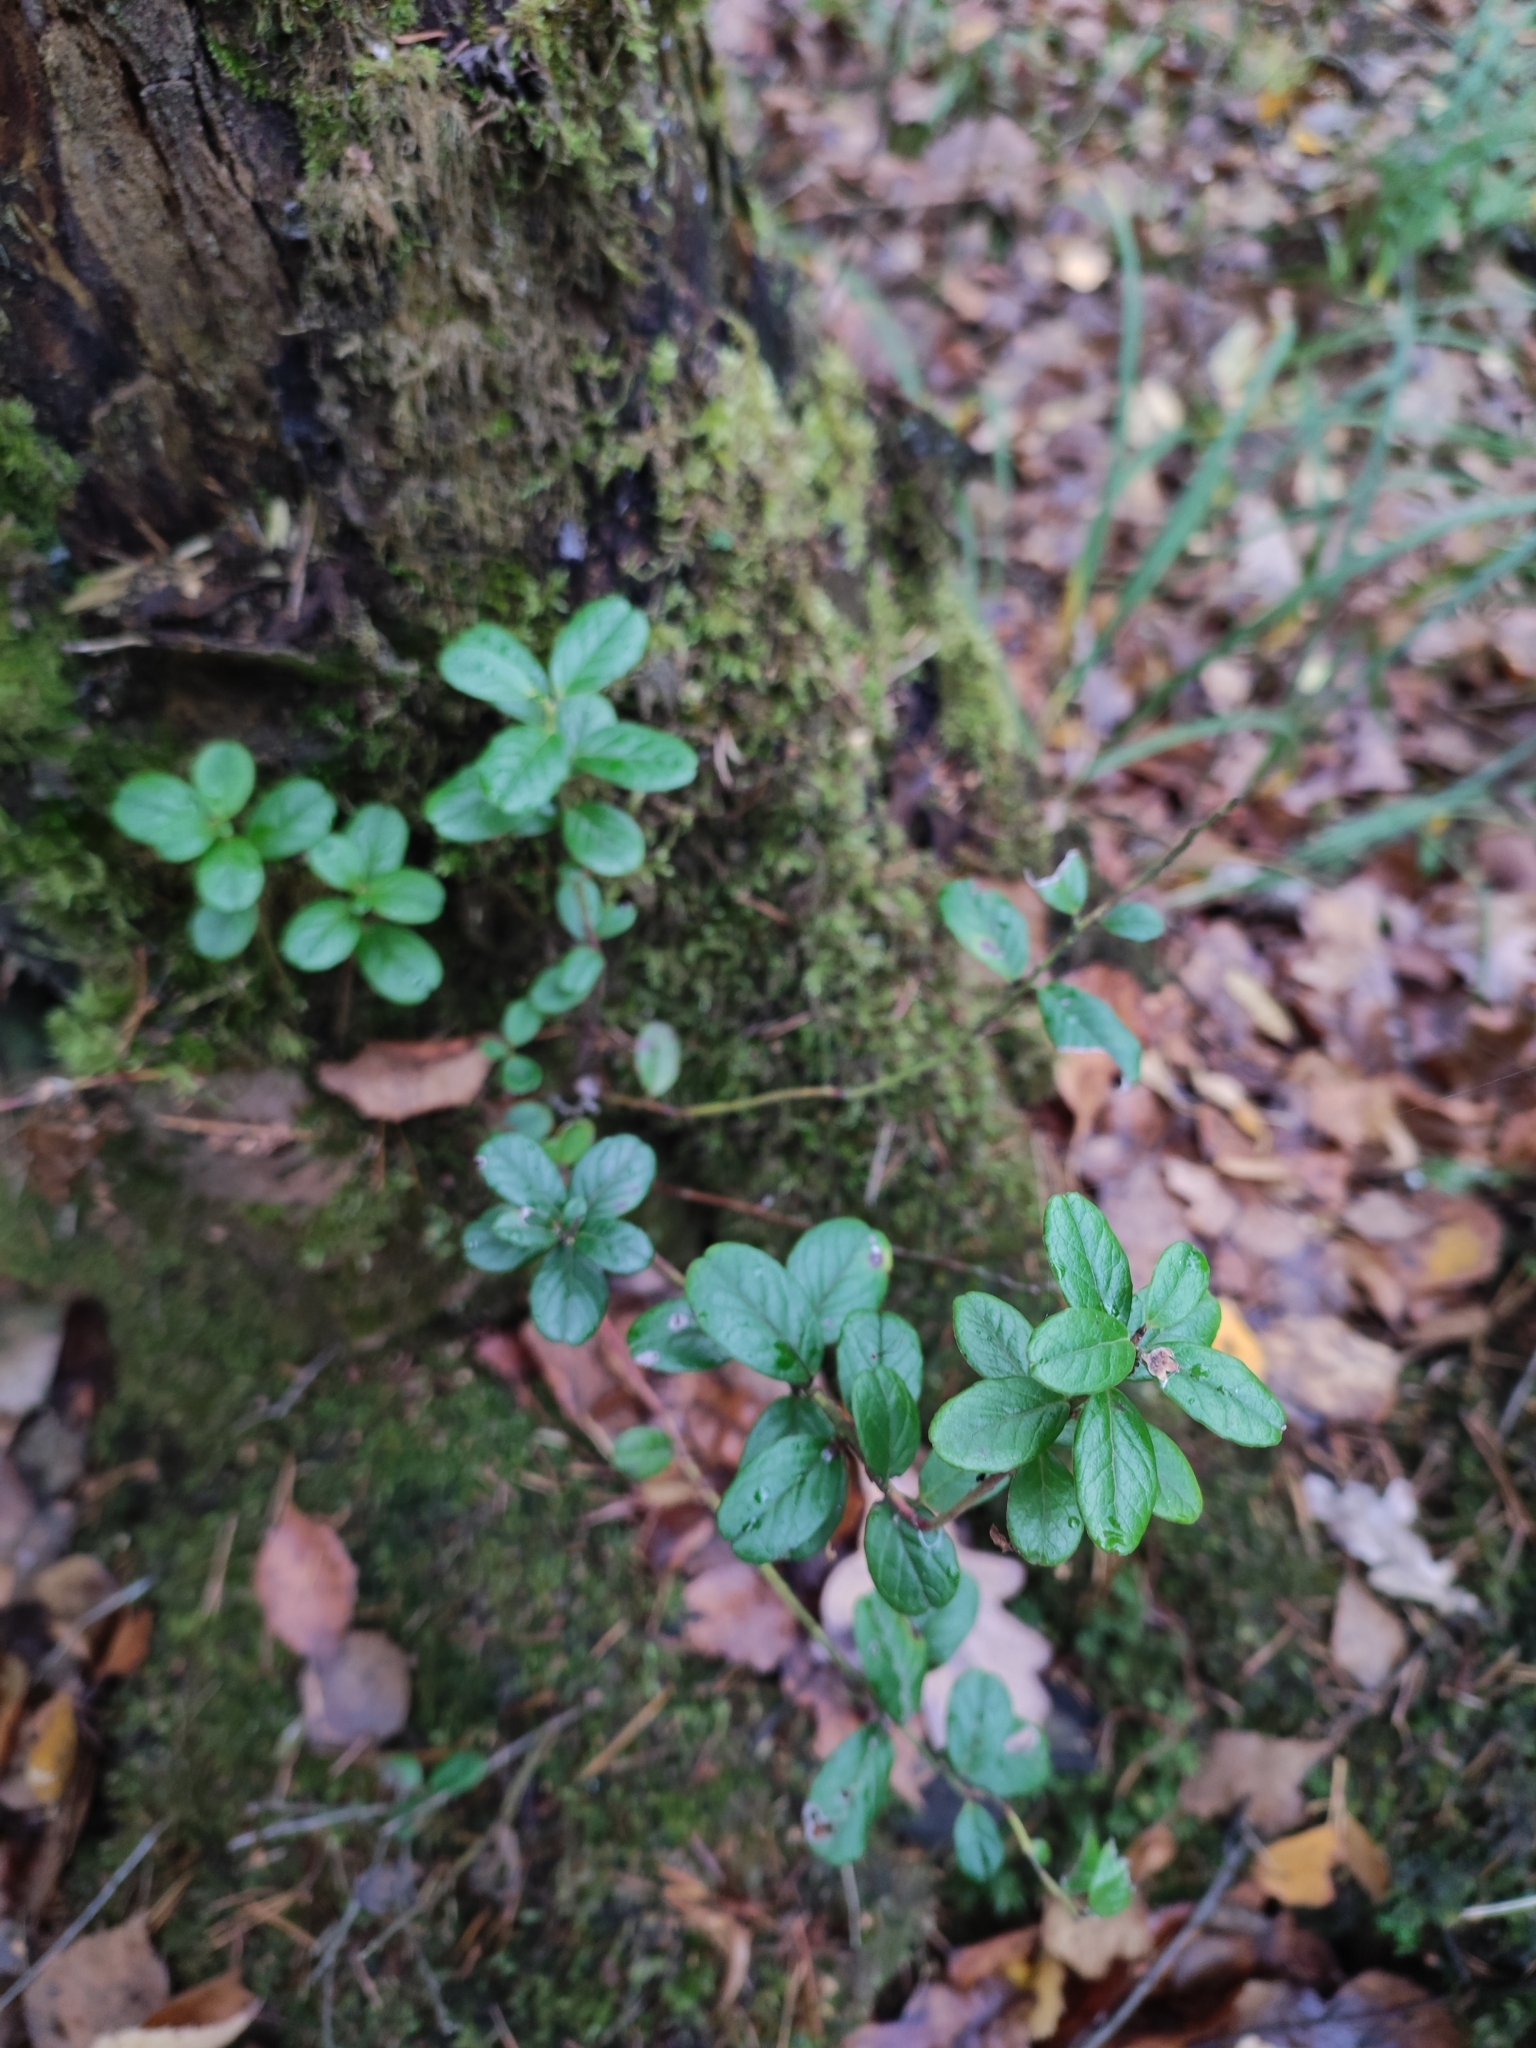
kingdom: Plantae
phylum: Tracheophyta
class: Magnoliopsida
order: Ericales
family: Ericaceae
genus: Vaccinium
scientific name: Vaccinium vitis-idaea
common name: Cowberry
